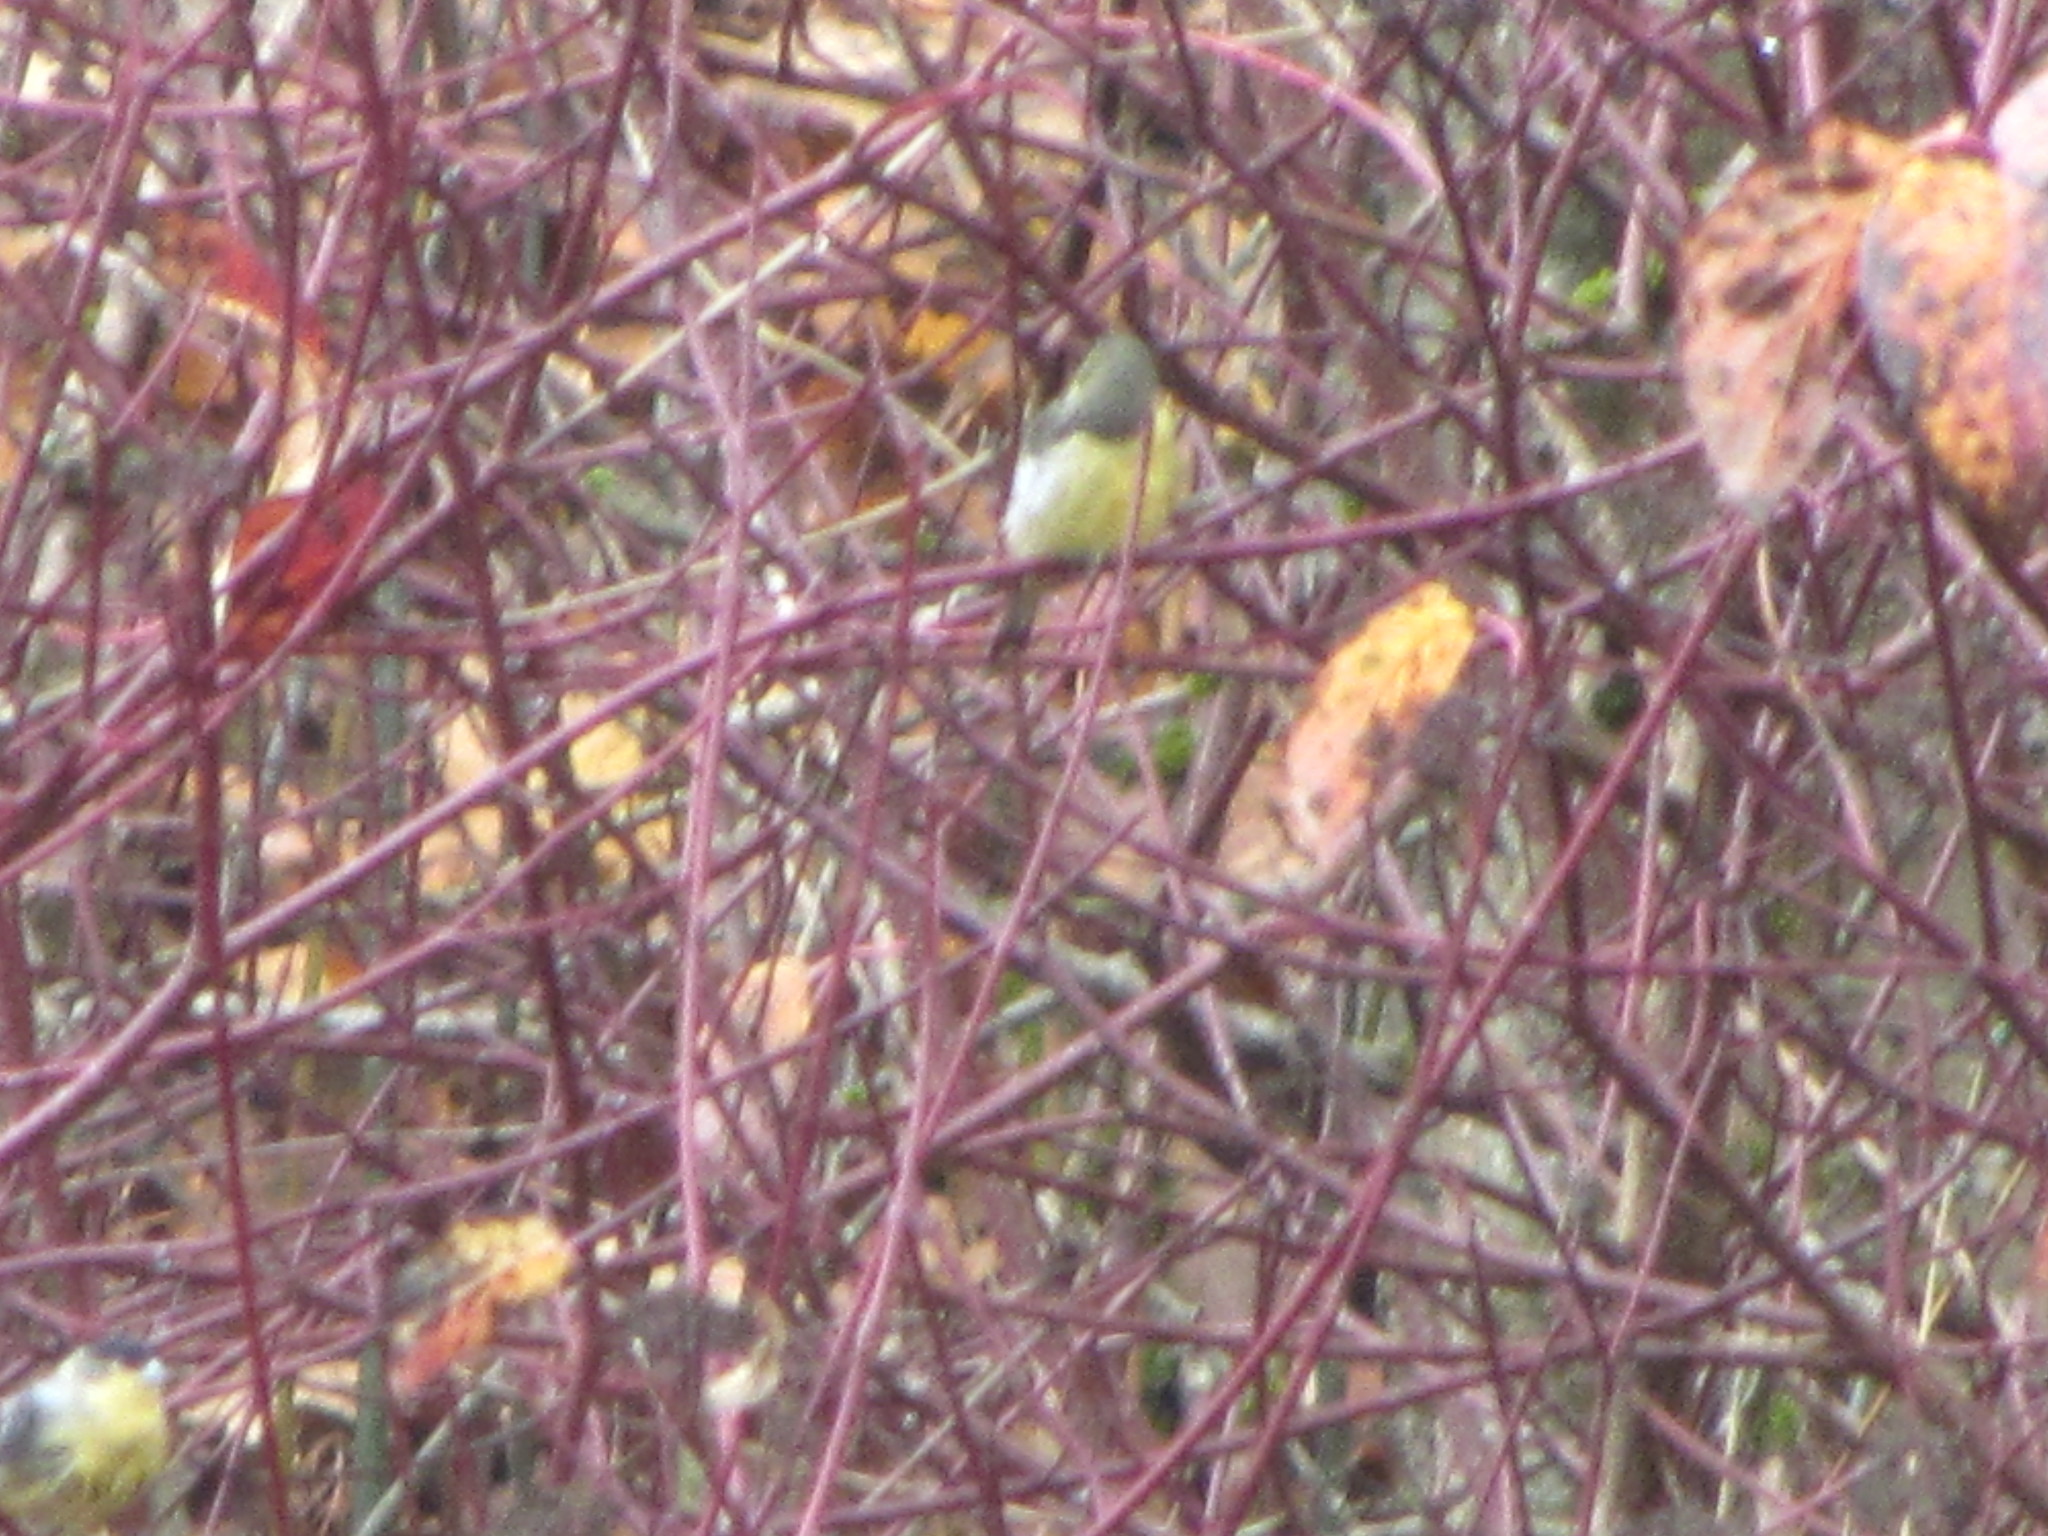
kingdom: Animalia
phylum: Chordata
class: Aves
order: Passeriformes
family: Fringillidae
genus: Spinus
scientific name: Spinus psaltria
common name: Lesser goldfinch
